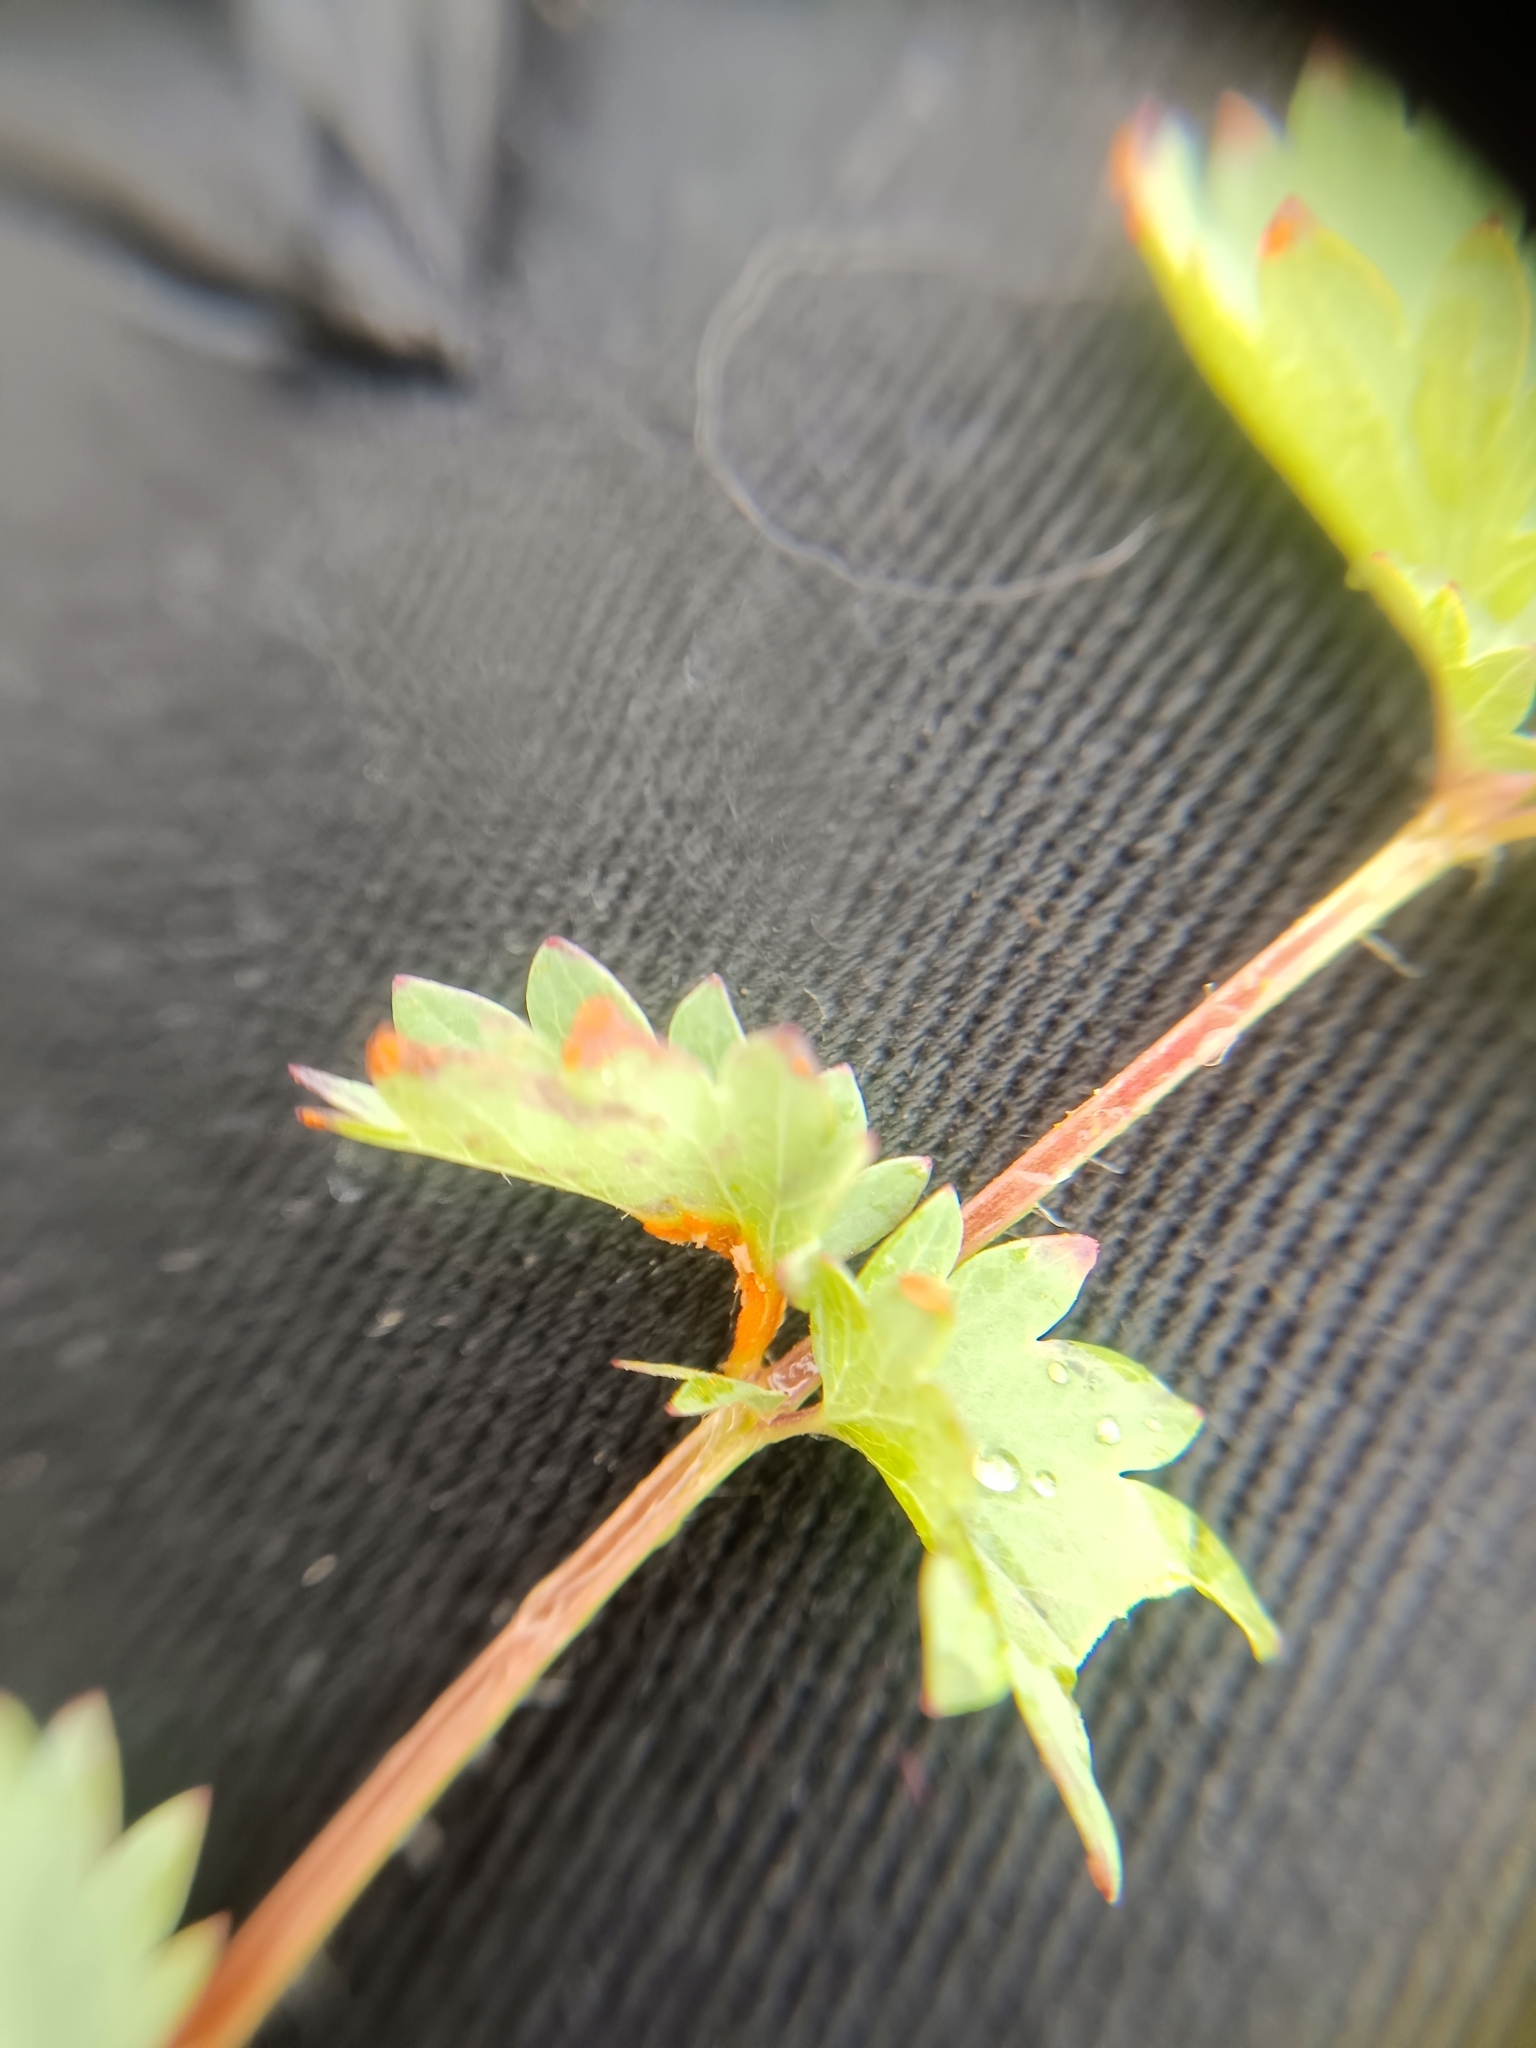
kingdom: Fungi
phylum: Basidiomycota
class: Pucciniomycetes
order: Pucciniales
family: Phragmidiaceae
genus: Phragmidium
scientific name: Phragmidium sanguisorbae
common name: Salad burnet rust
